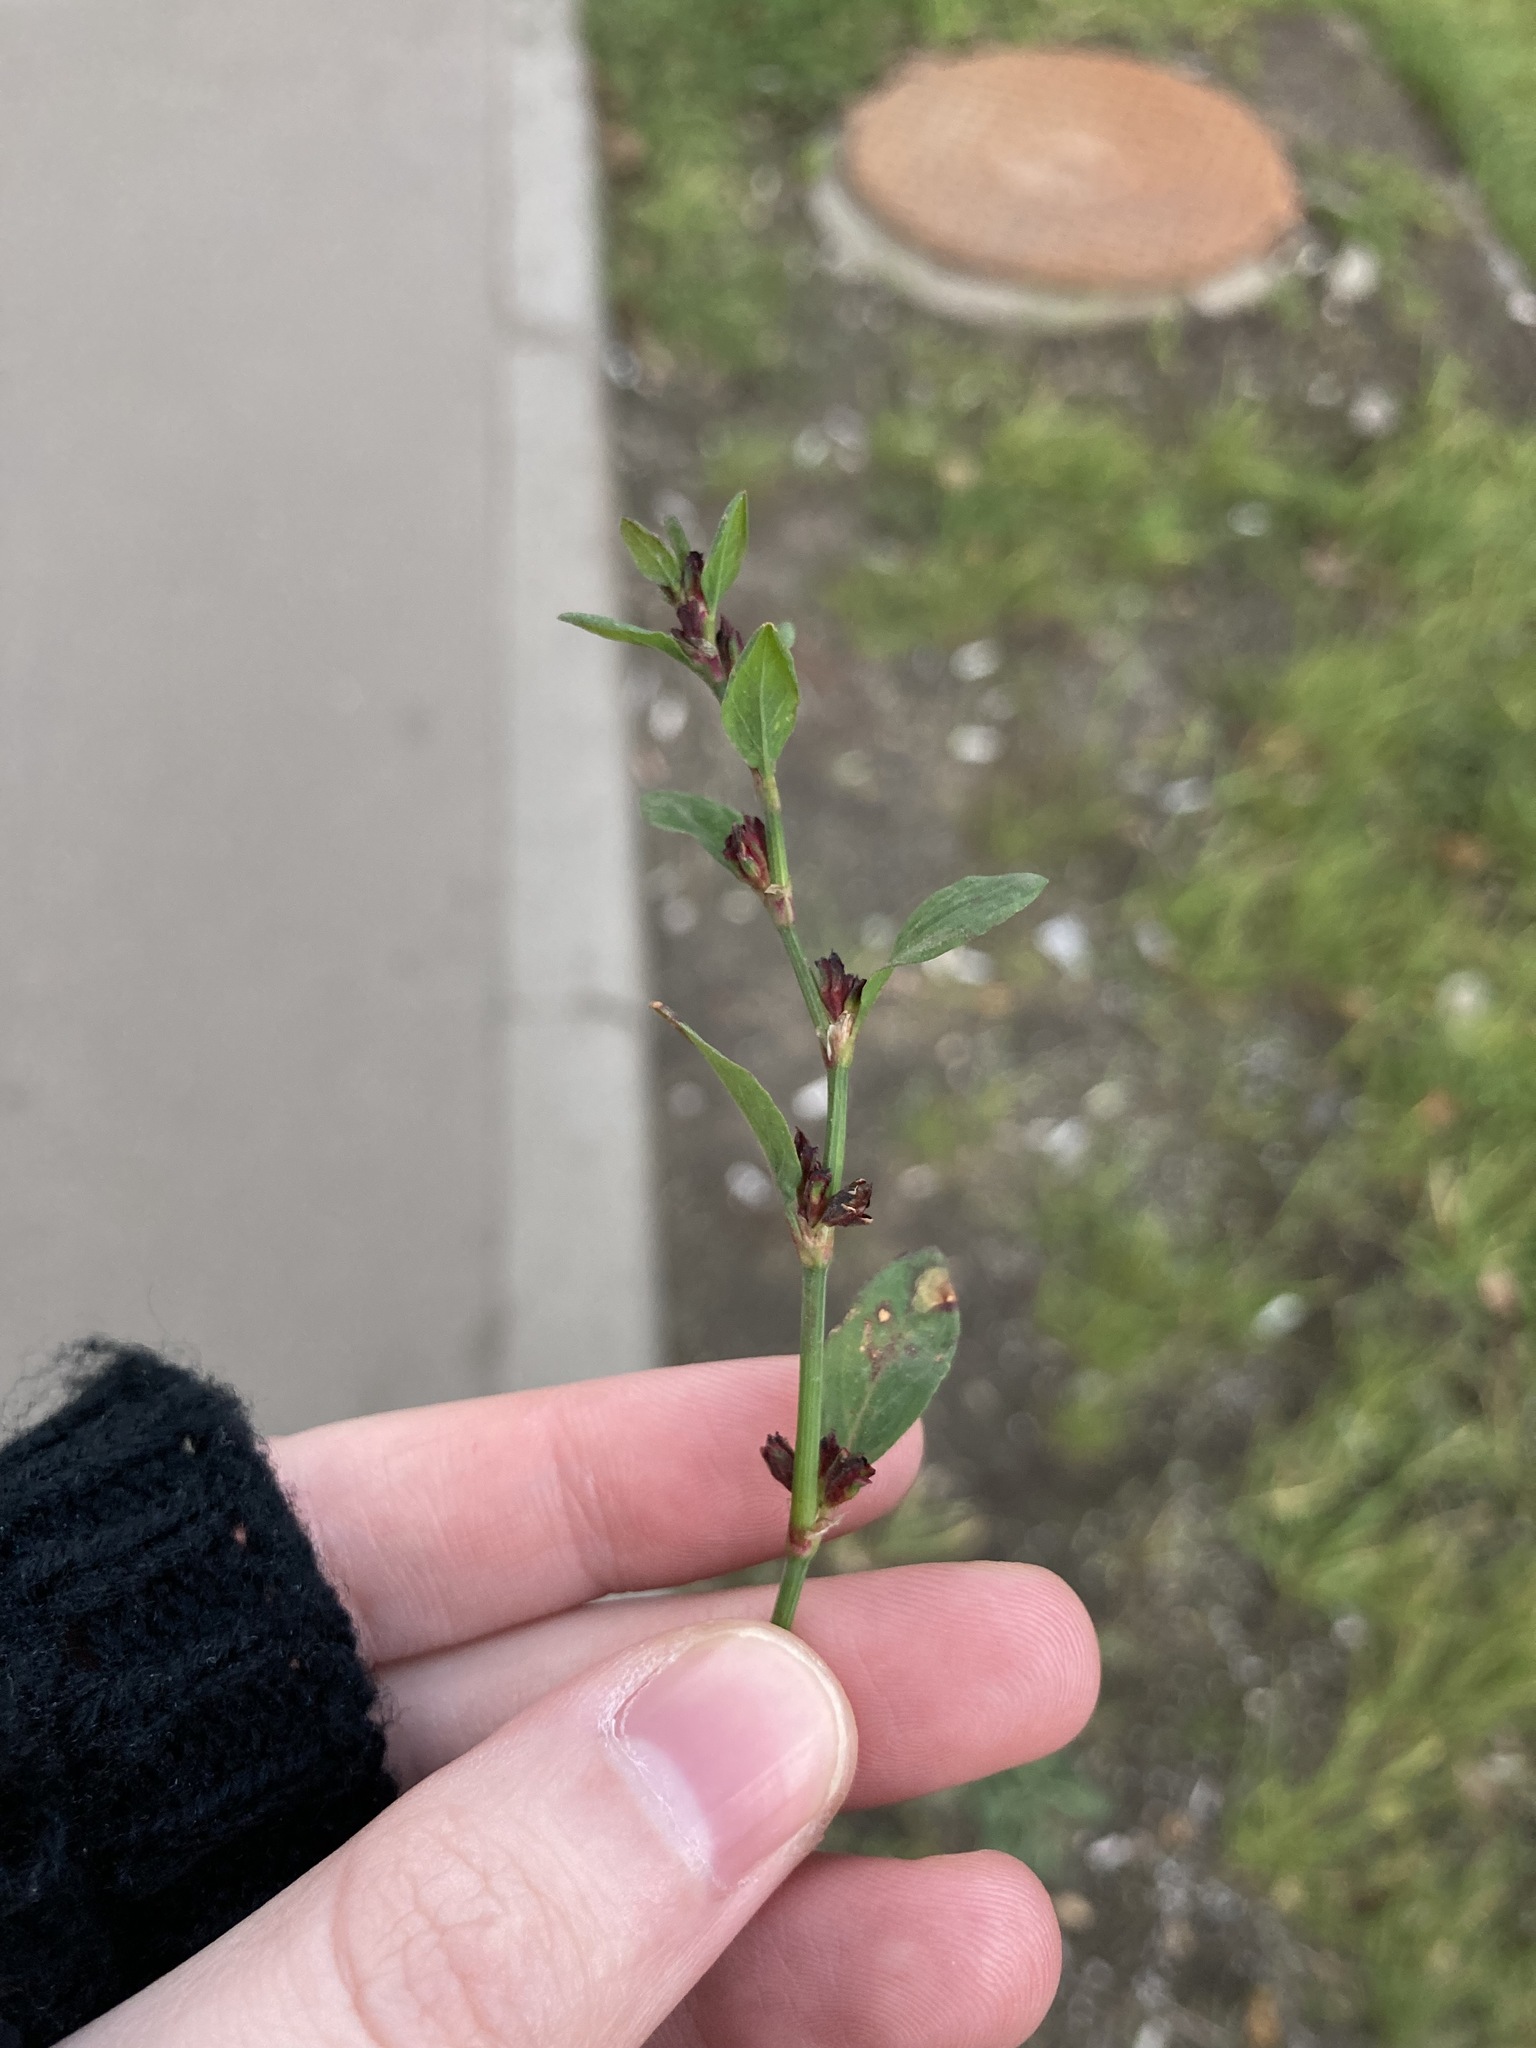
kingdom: Plantae
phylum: Tracheophyta
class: Magnoliopsida
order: Caryophyllales
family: Polygonaceae
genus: Polygonum
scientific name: Polygonum
